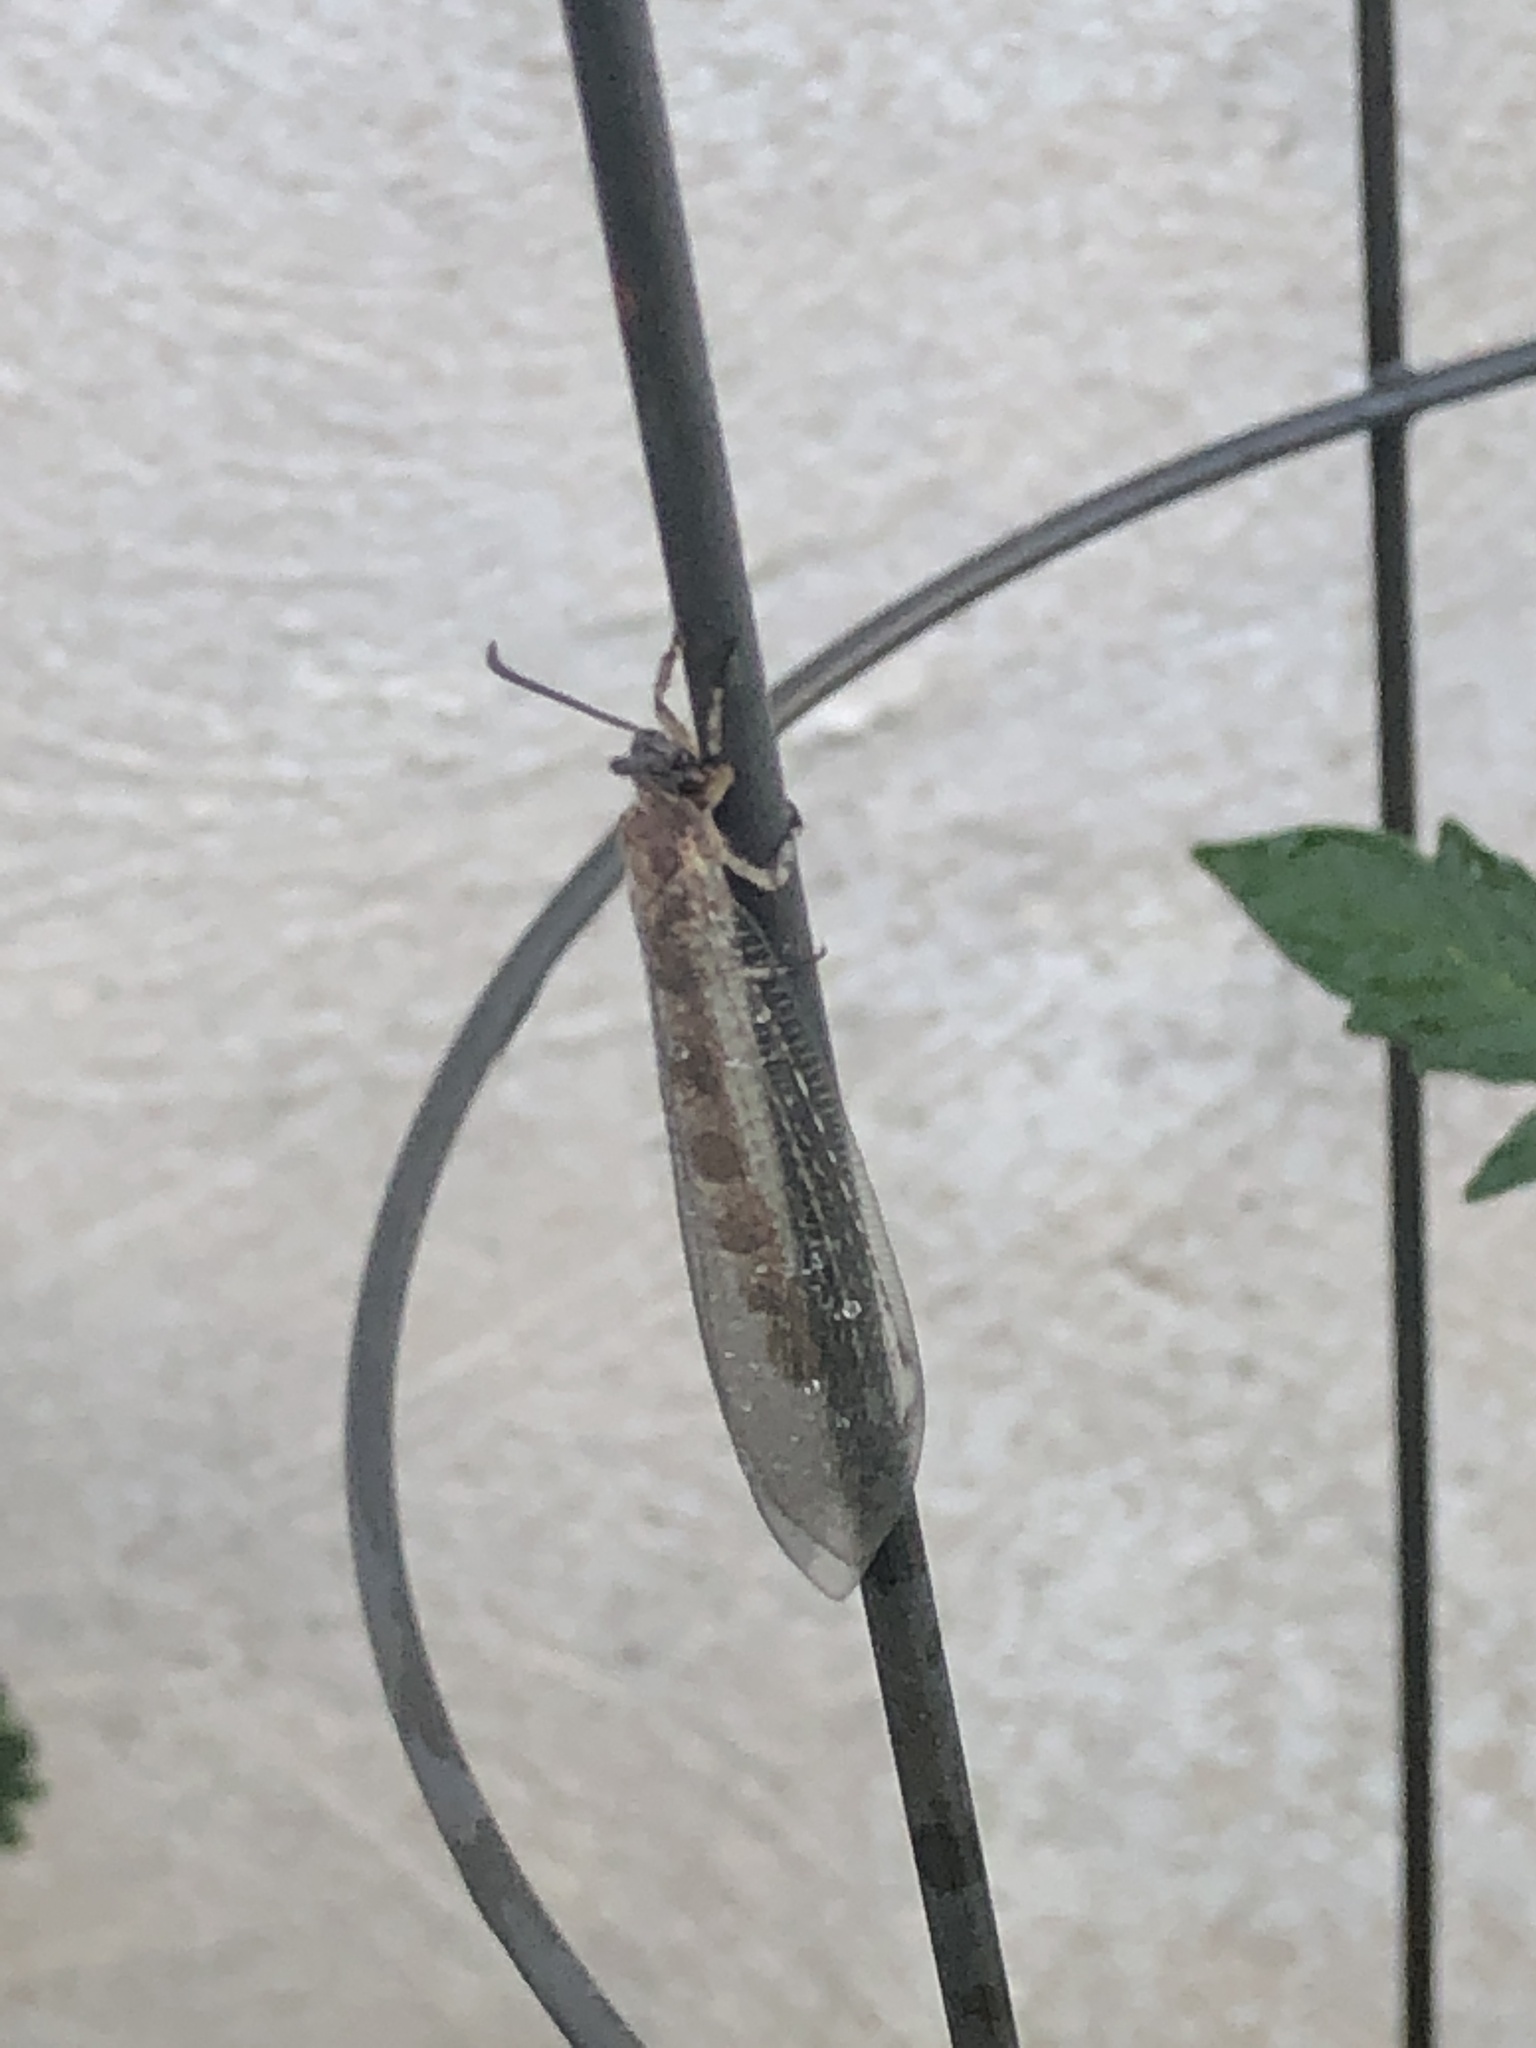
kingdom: Animalia
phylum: Arthropoda
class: Insecta
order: Neuroptera
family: Myrmeleontidae
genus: Myrmeleon
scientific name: Myrmeleon immaculatus
